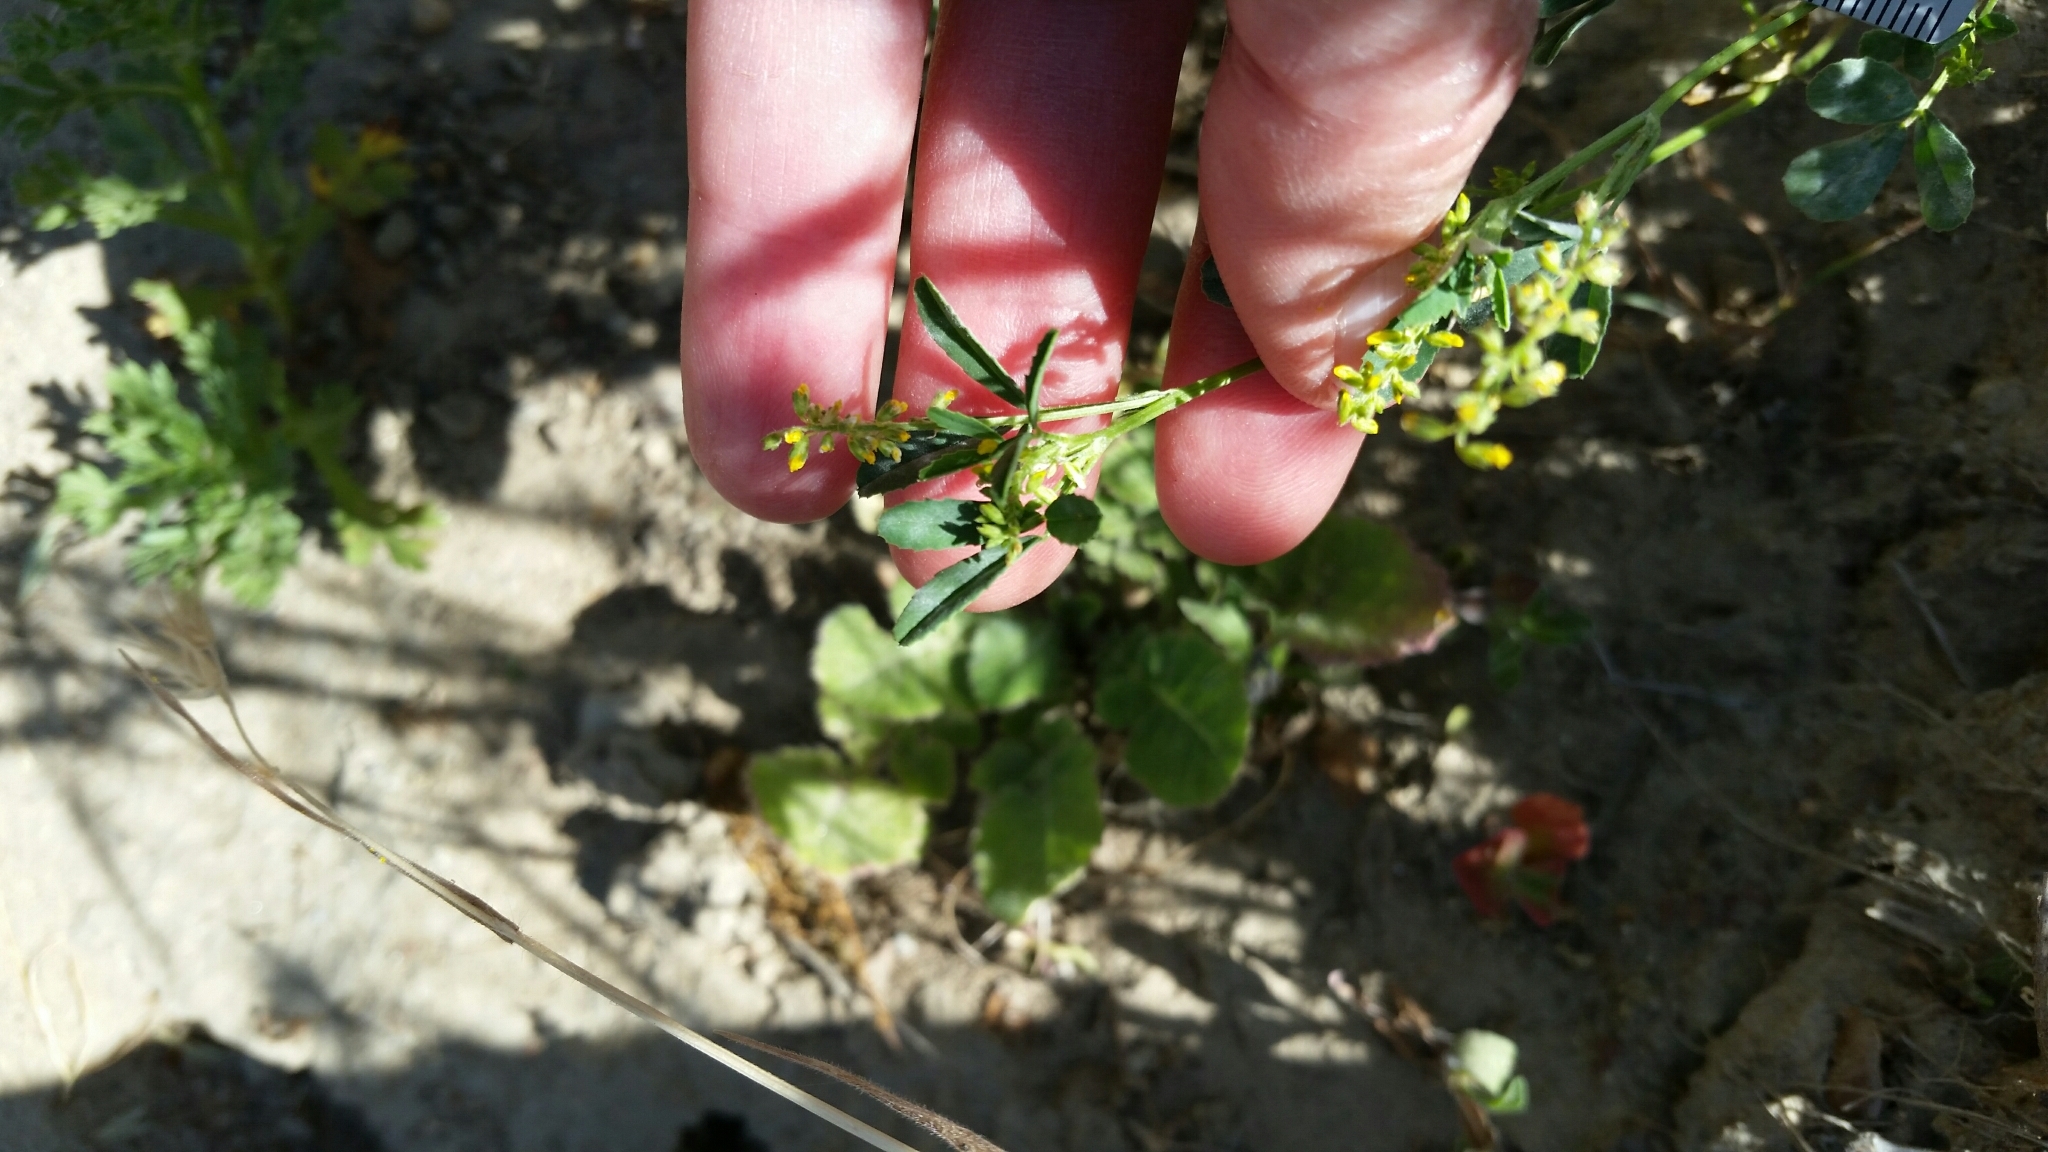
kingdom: Plantae
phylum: Tracheophyta
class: Magnoliopsida
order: Fabales
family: Fabaceae
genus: Melilotus
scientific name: Melilotus indicus
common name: Small melilot
